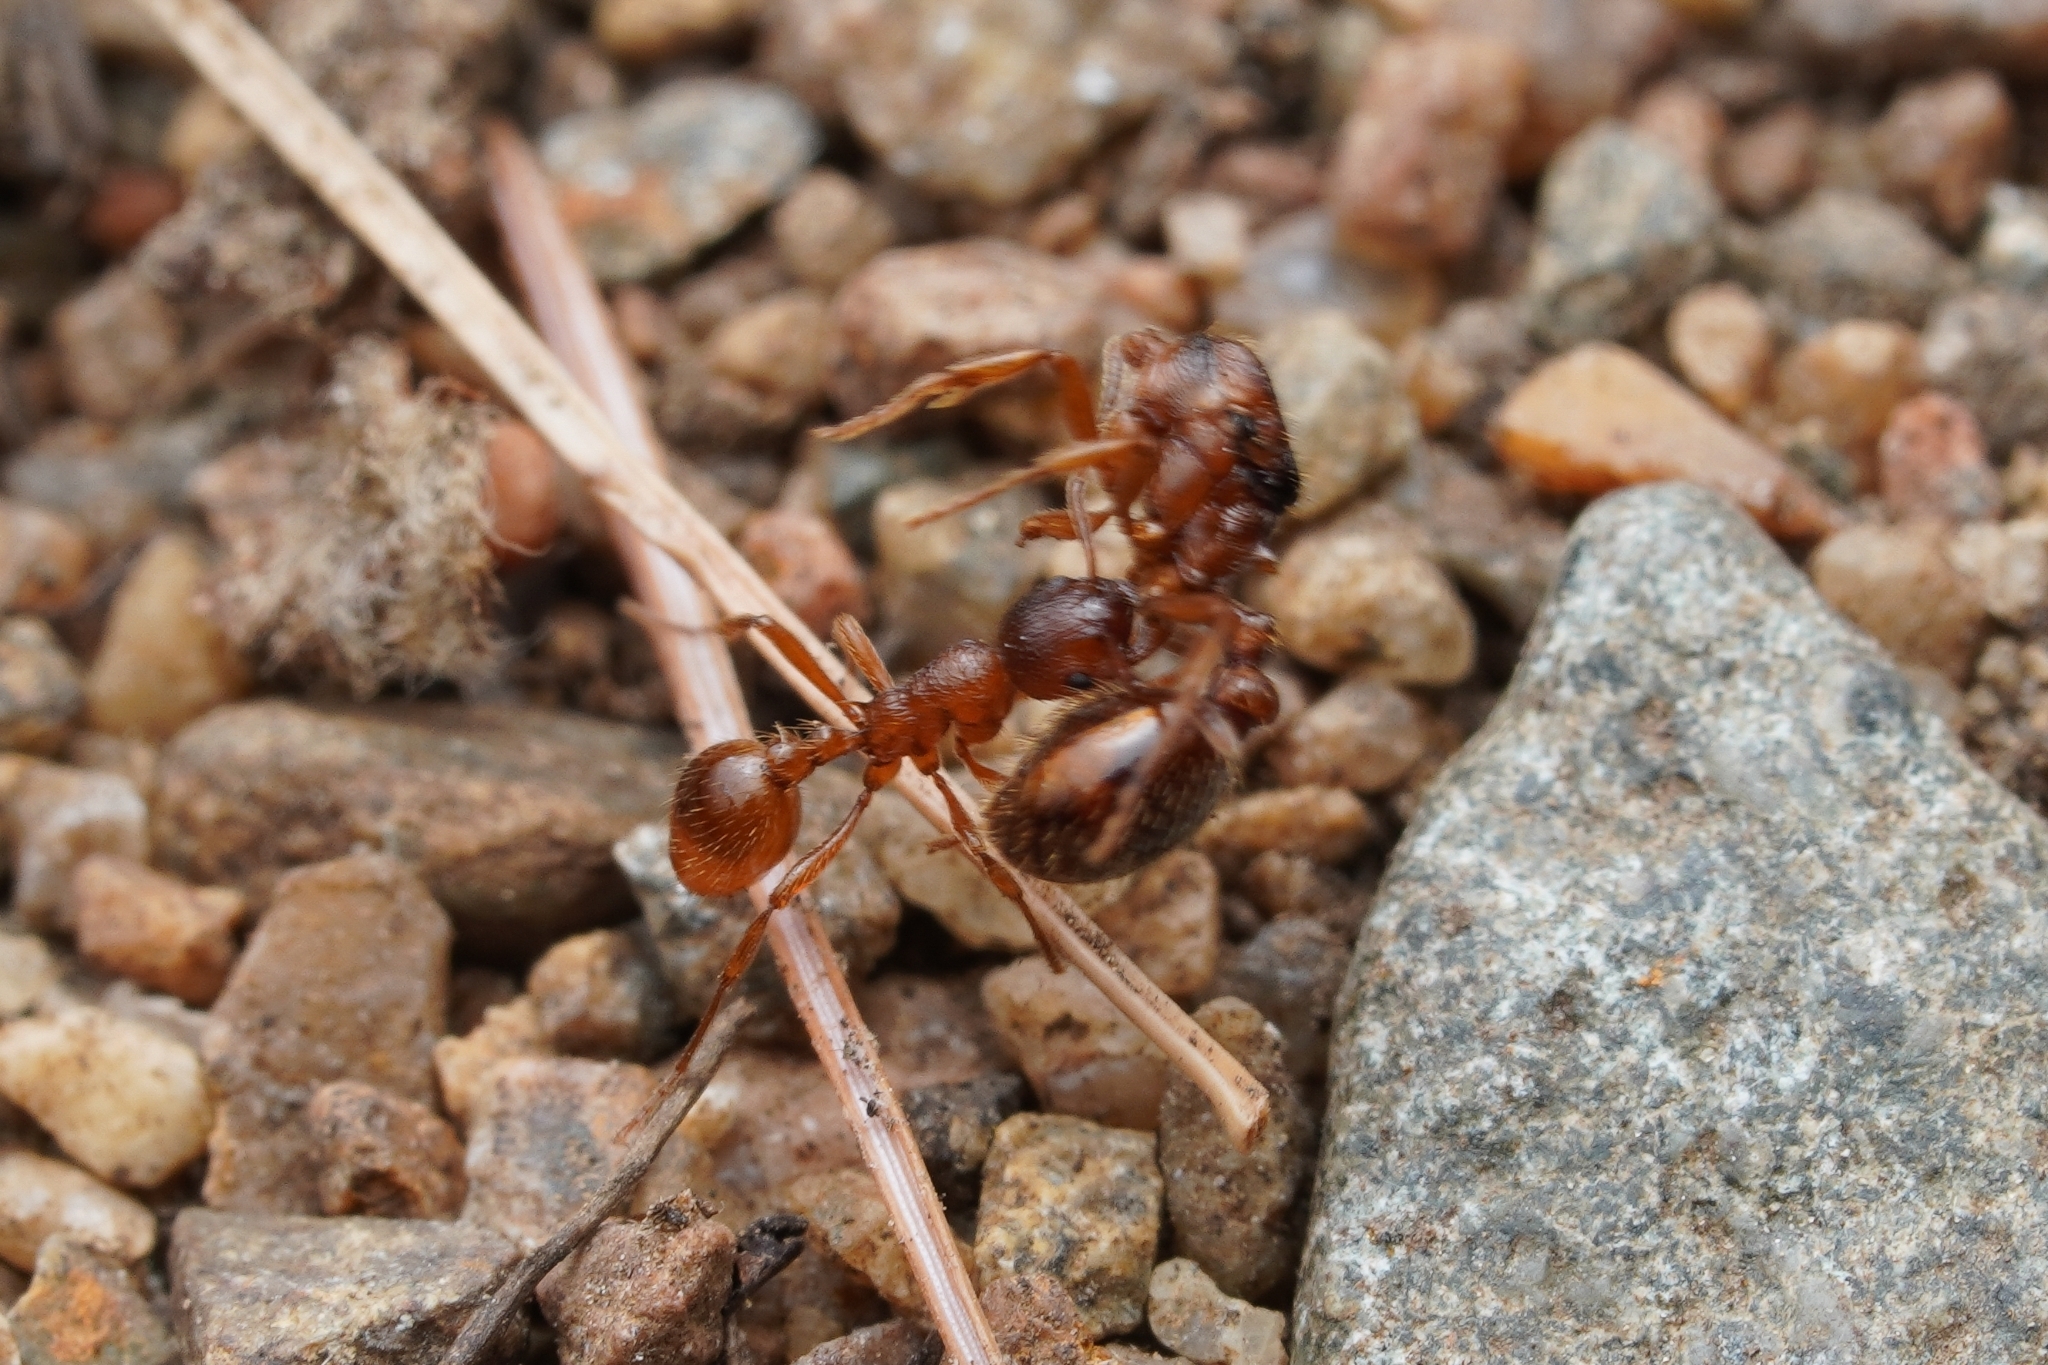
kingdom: Animalia
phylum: Arthropoda
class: Insecta
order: Hymenoptera
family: Formicidae
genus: Myrmica
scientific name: Myrmica rubra
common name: European fire ant
